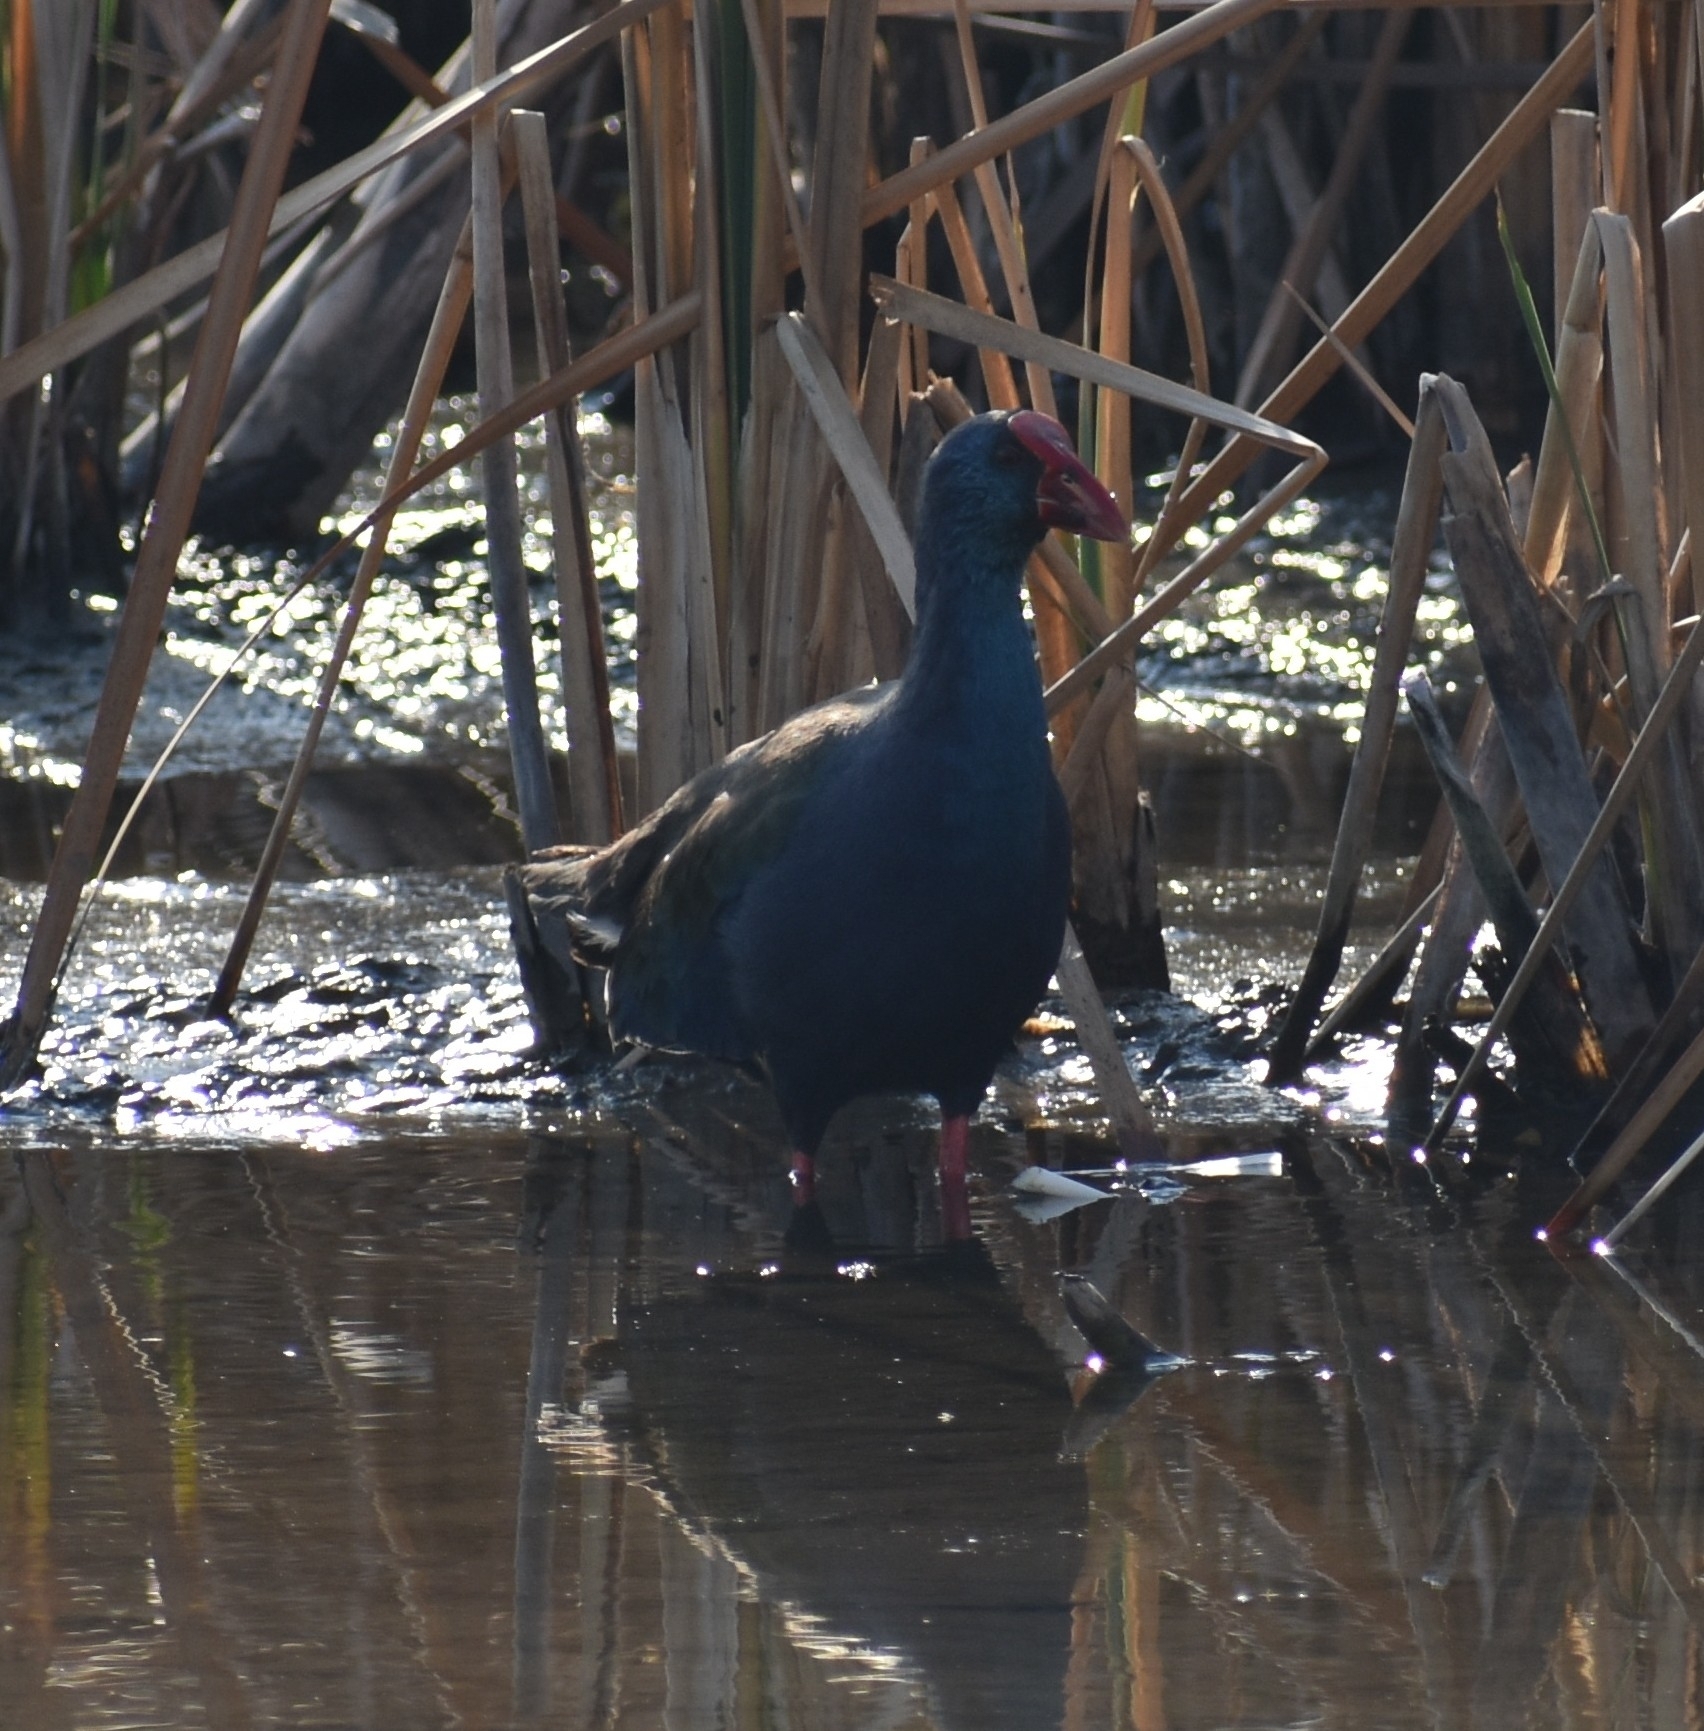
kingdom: Animalia
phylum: Chordata
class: Aves
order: Gruiformes
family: Rallidae
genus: Porphyrio
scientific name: Porphyrio porphyrio
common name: Purple swamphen
